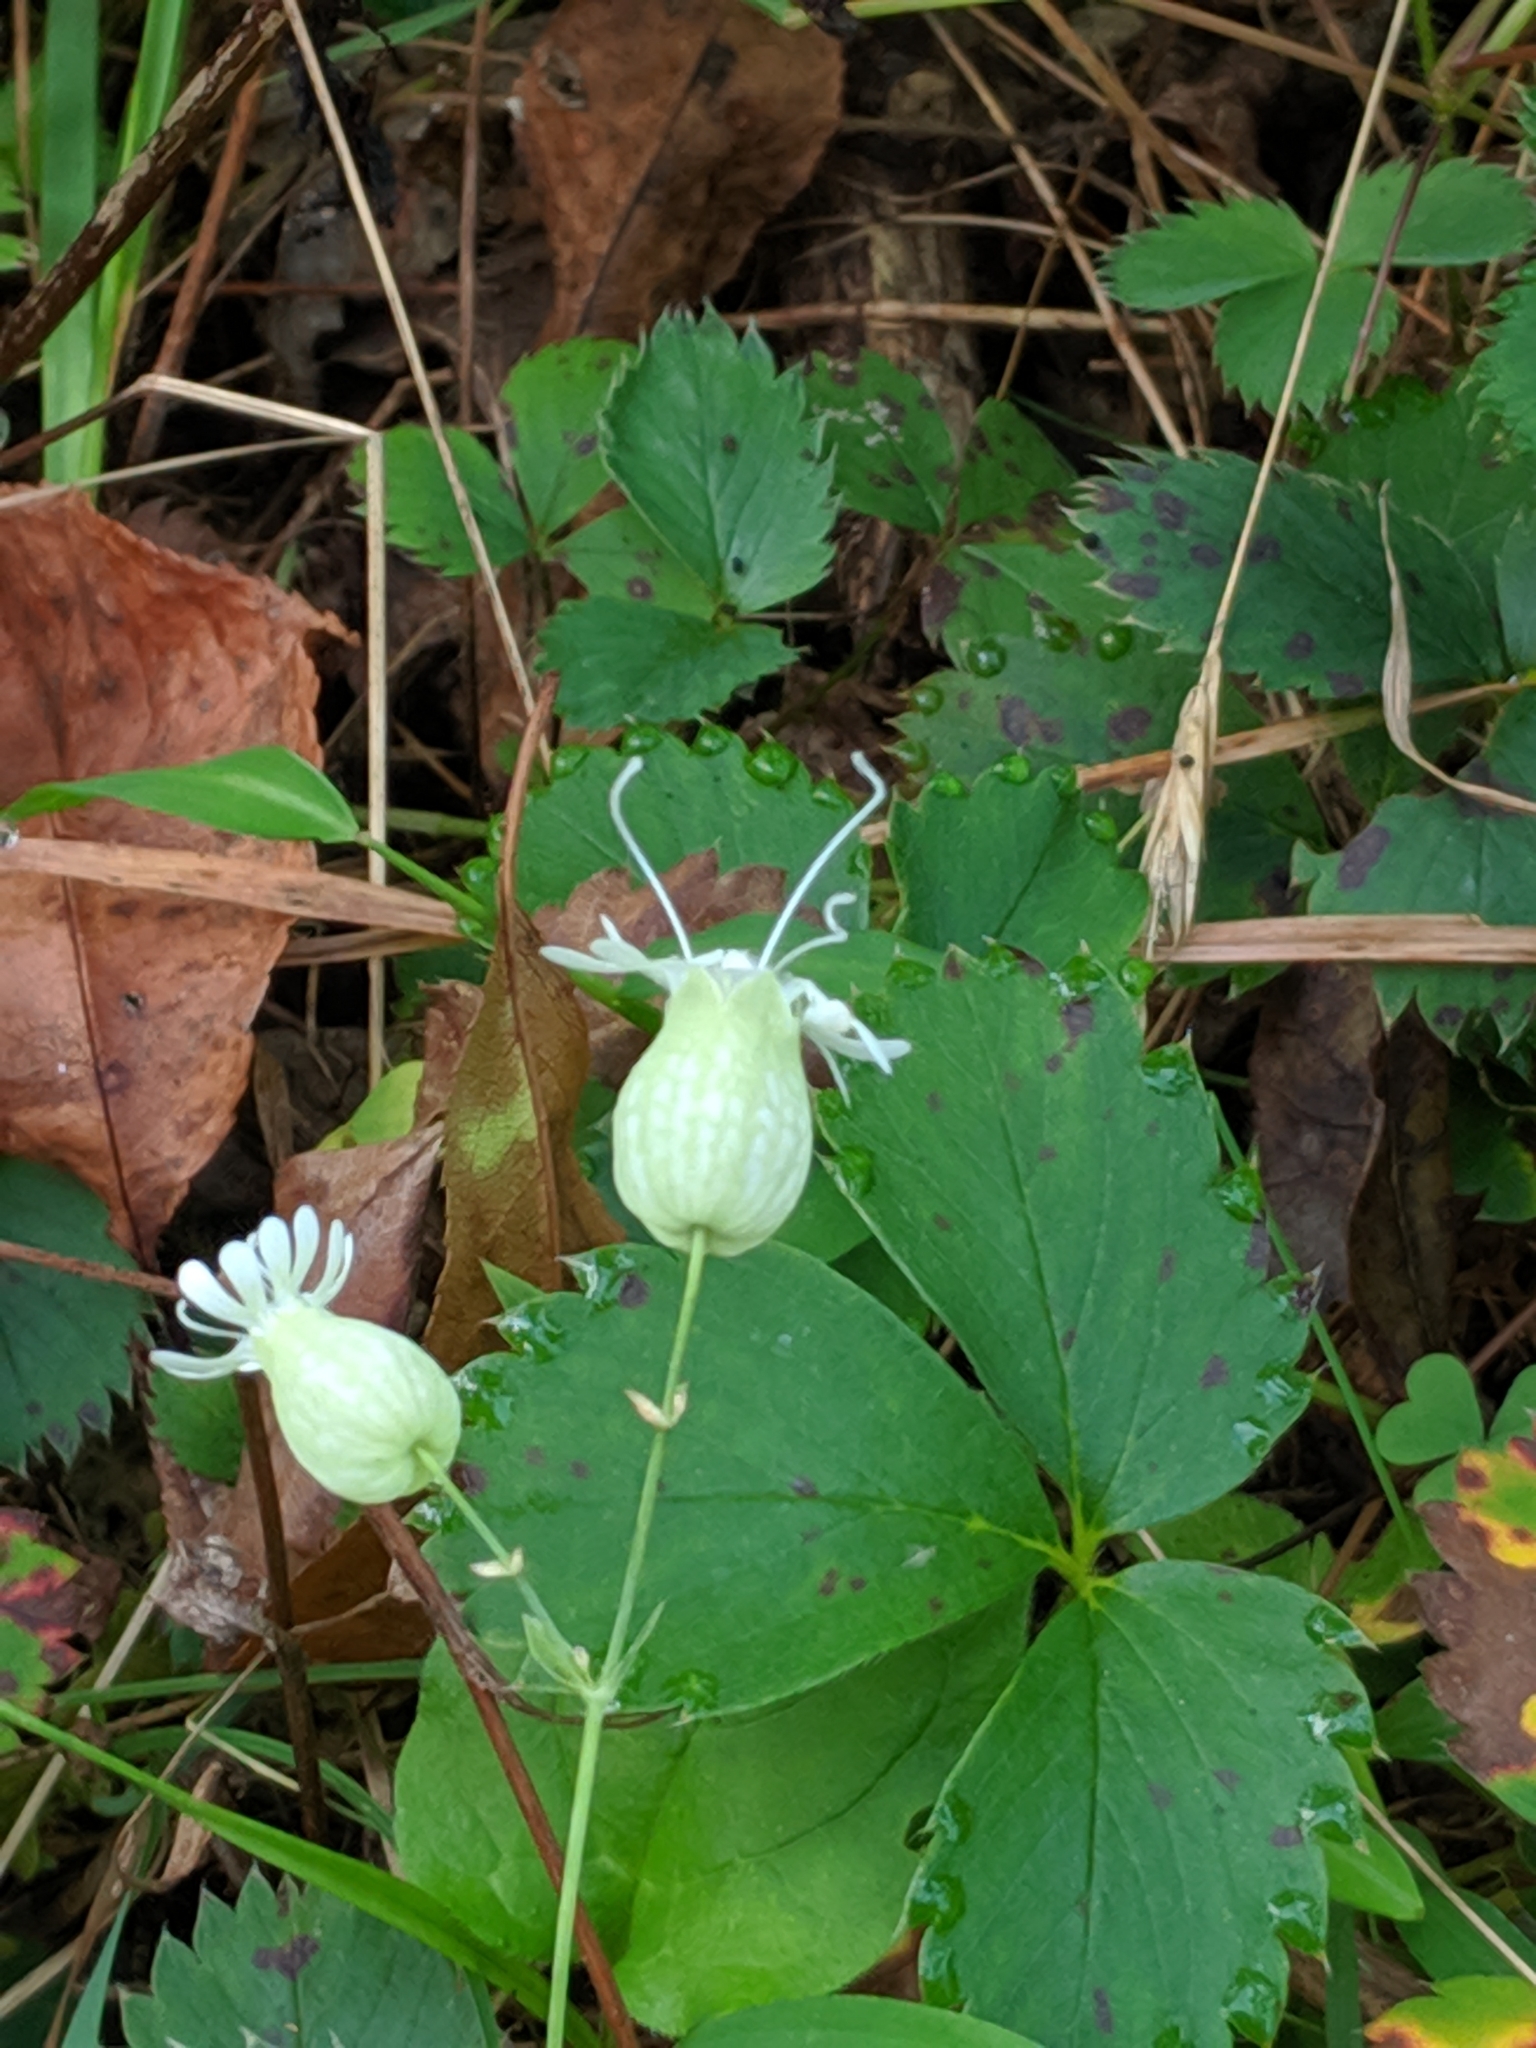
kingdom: Plantae
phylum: Tracheophyta
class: Magnoliopsida
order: Caryophyllales
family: Caryophyllaceae
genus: Silene
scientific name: Silene vulgaris
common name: Bladder campion
